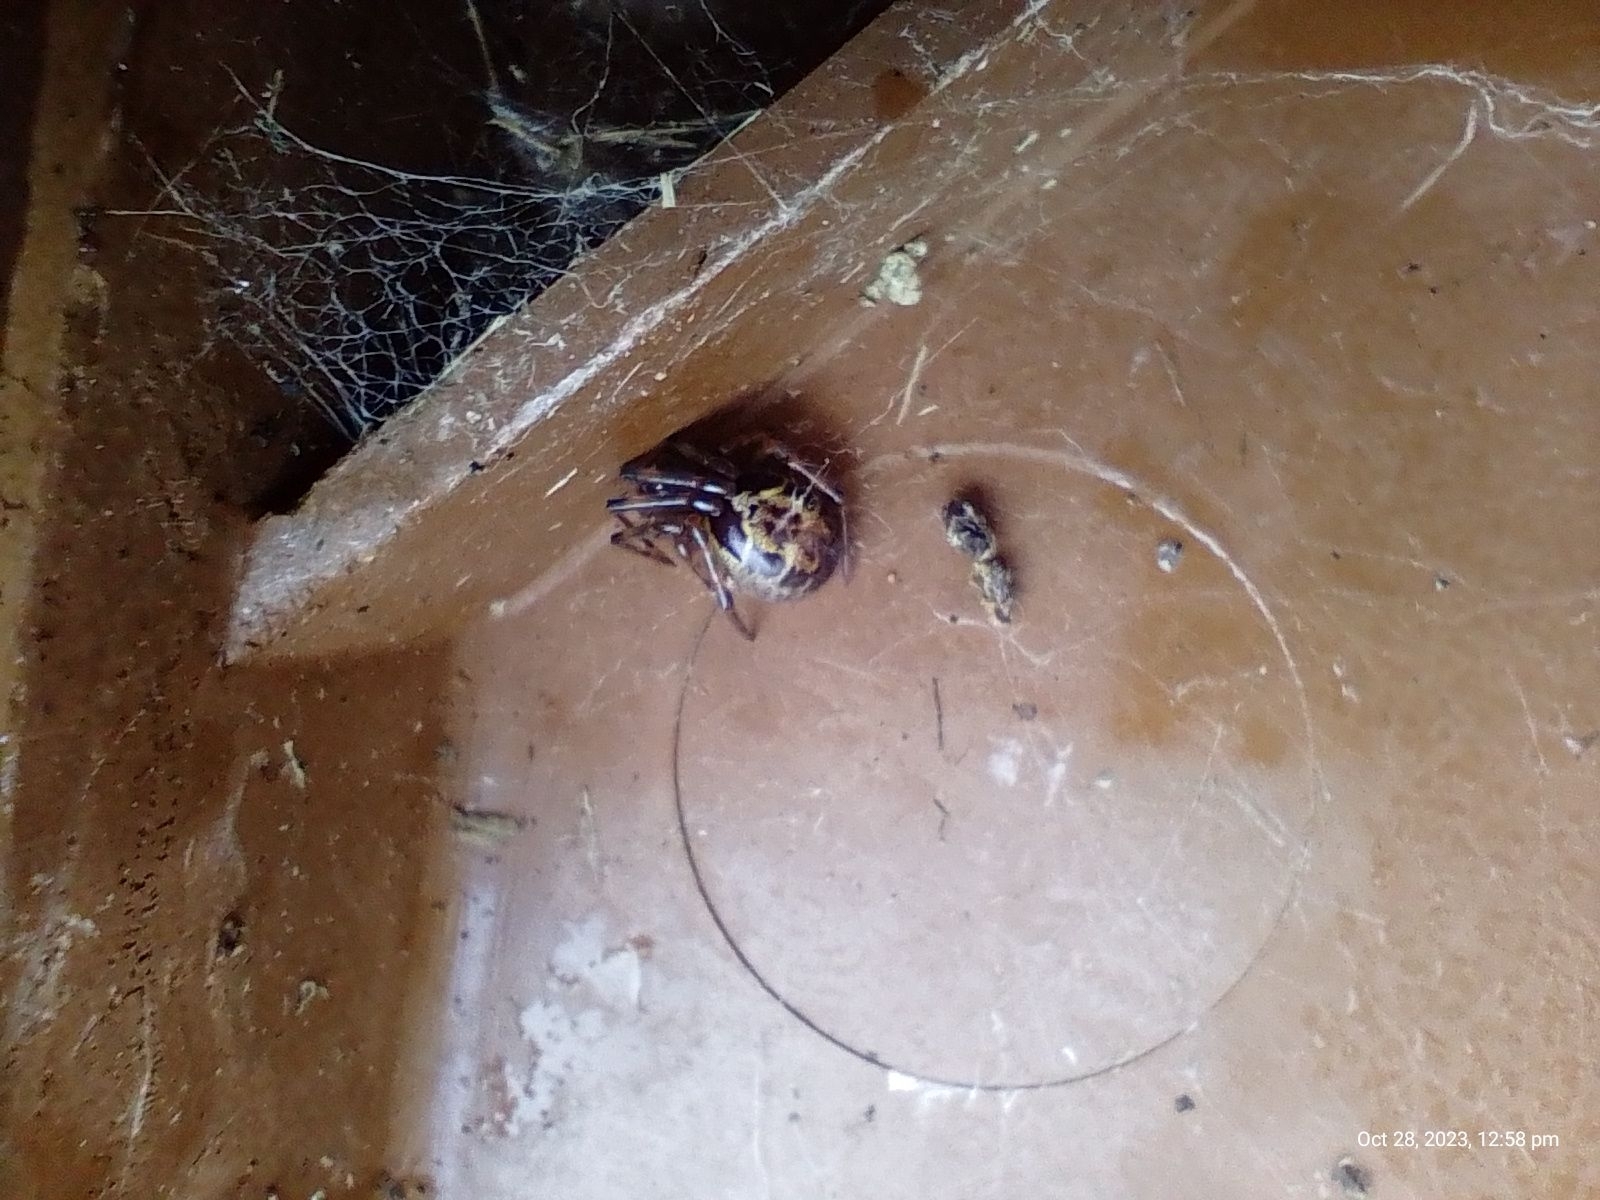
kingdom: Animalia
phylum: Arthropoda
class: Arachnida
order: Araneae
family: Theridiidae
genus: Steatoda
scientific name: Steatoda nobilis
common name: Cobweb weaver
